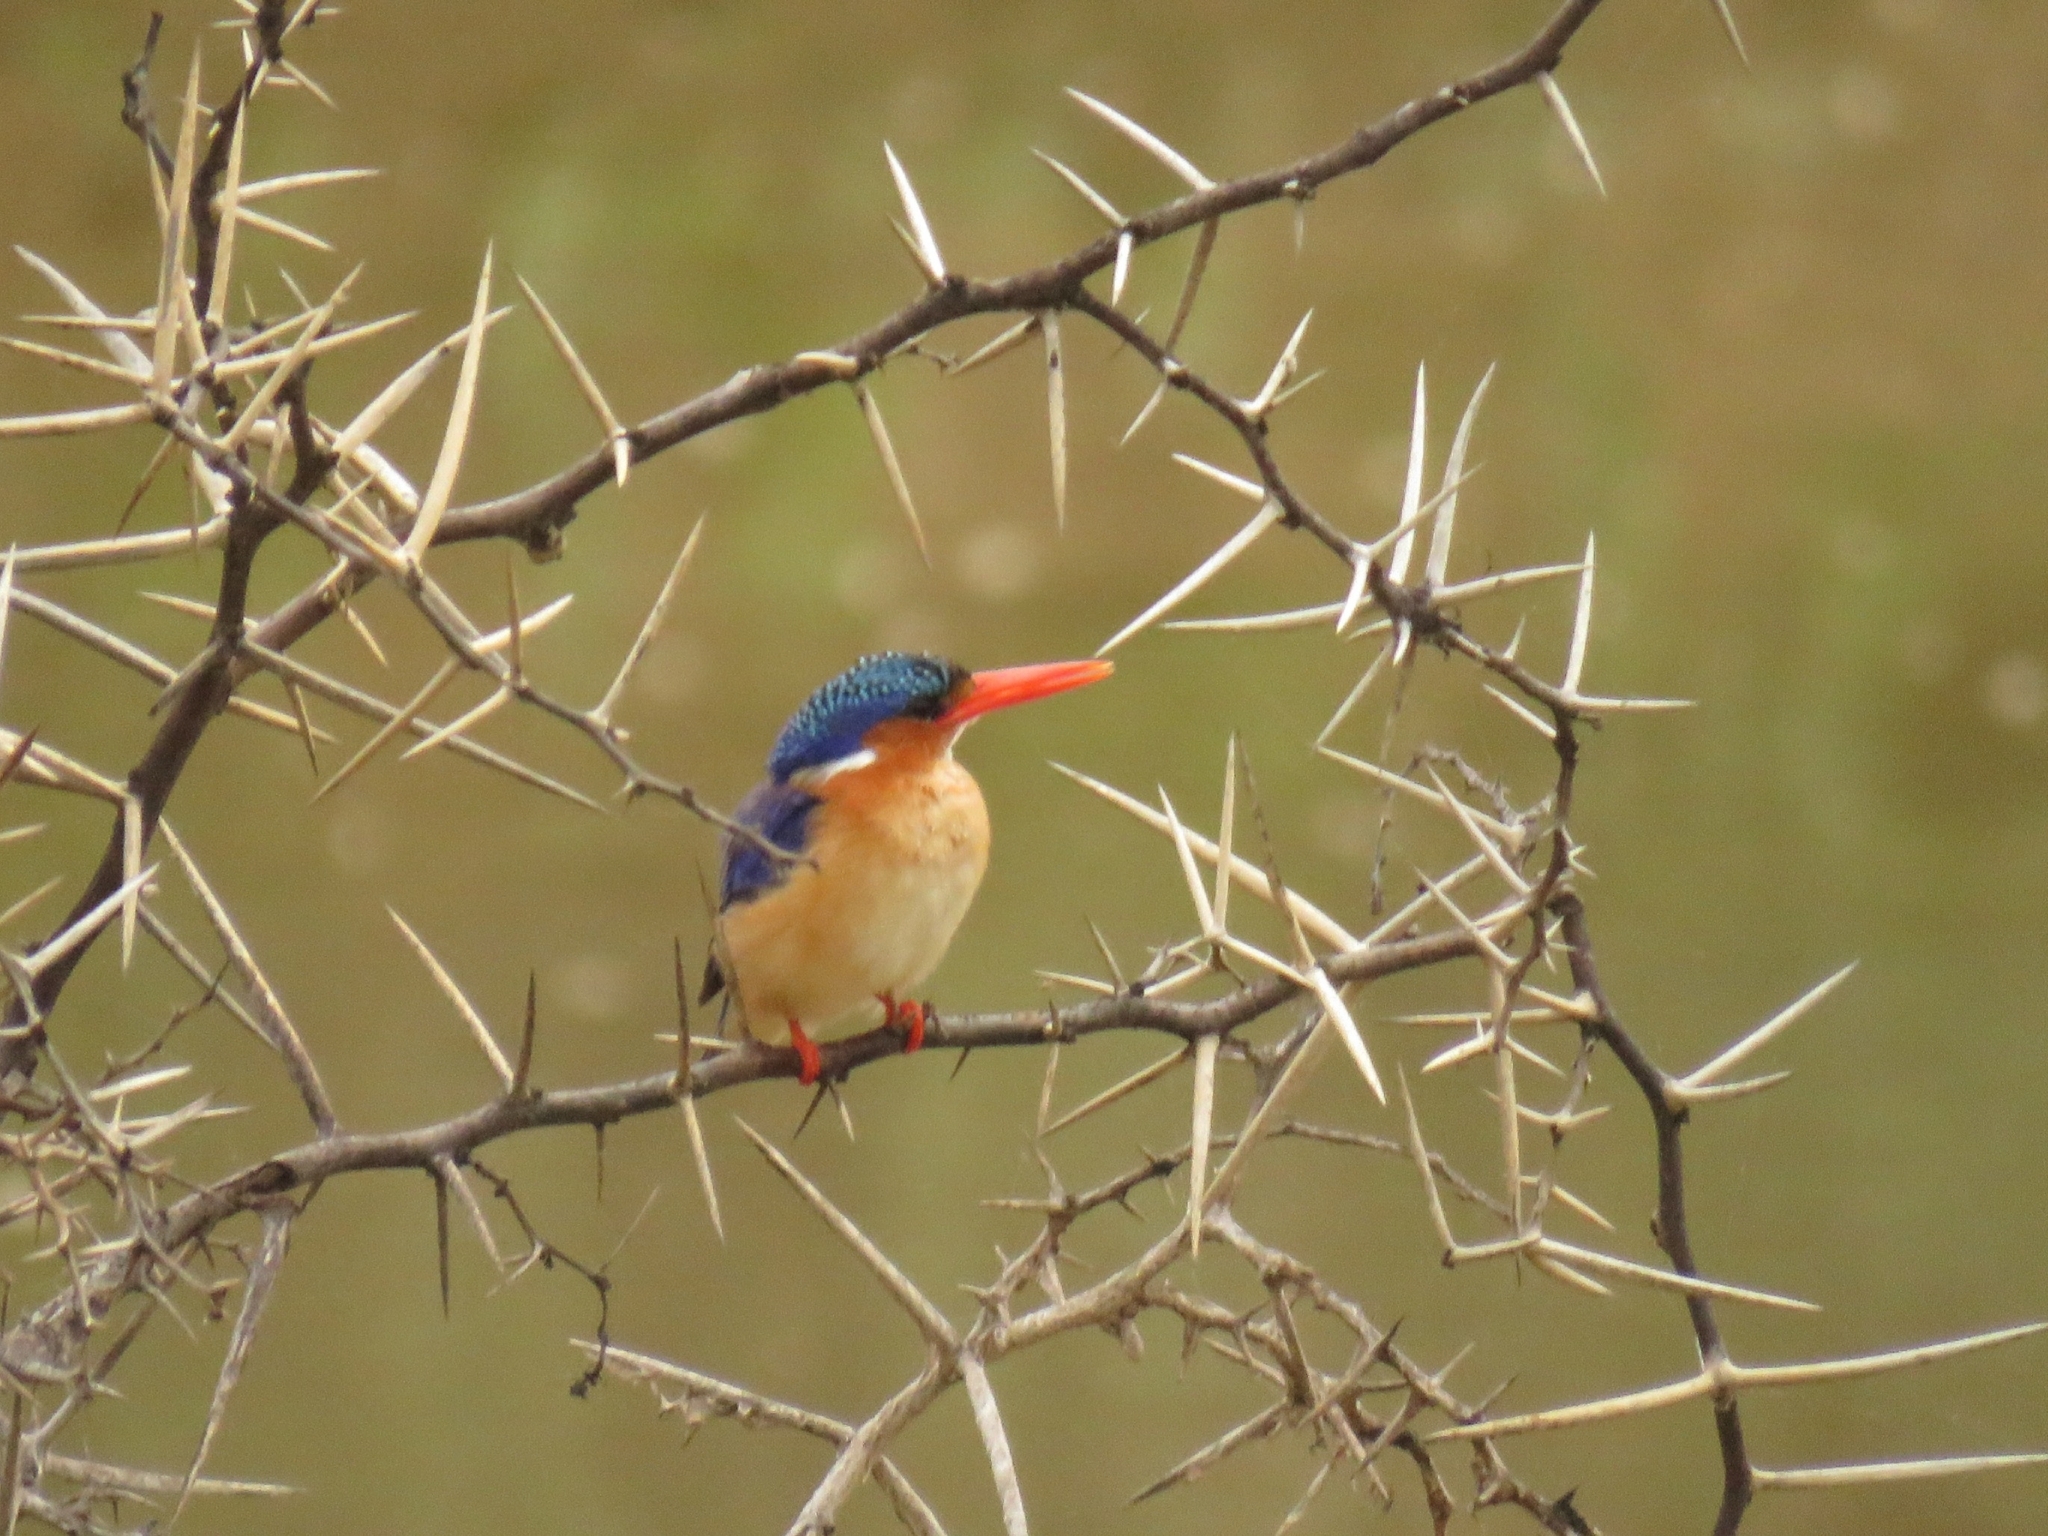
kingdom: Animalia
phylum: Chordata
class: Aves
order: Coraciiformes
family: Alcedinidae
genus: Corythornis
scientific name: Corythornis cristatus
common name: Malachite kingfisher
